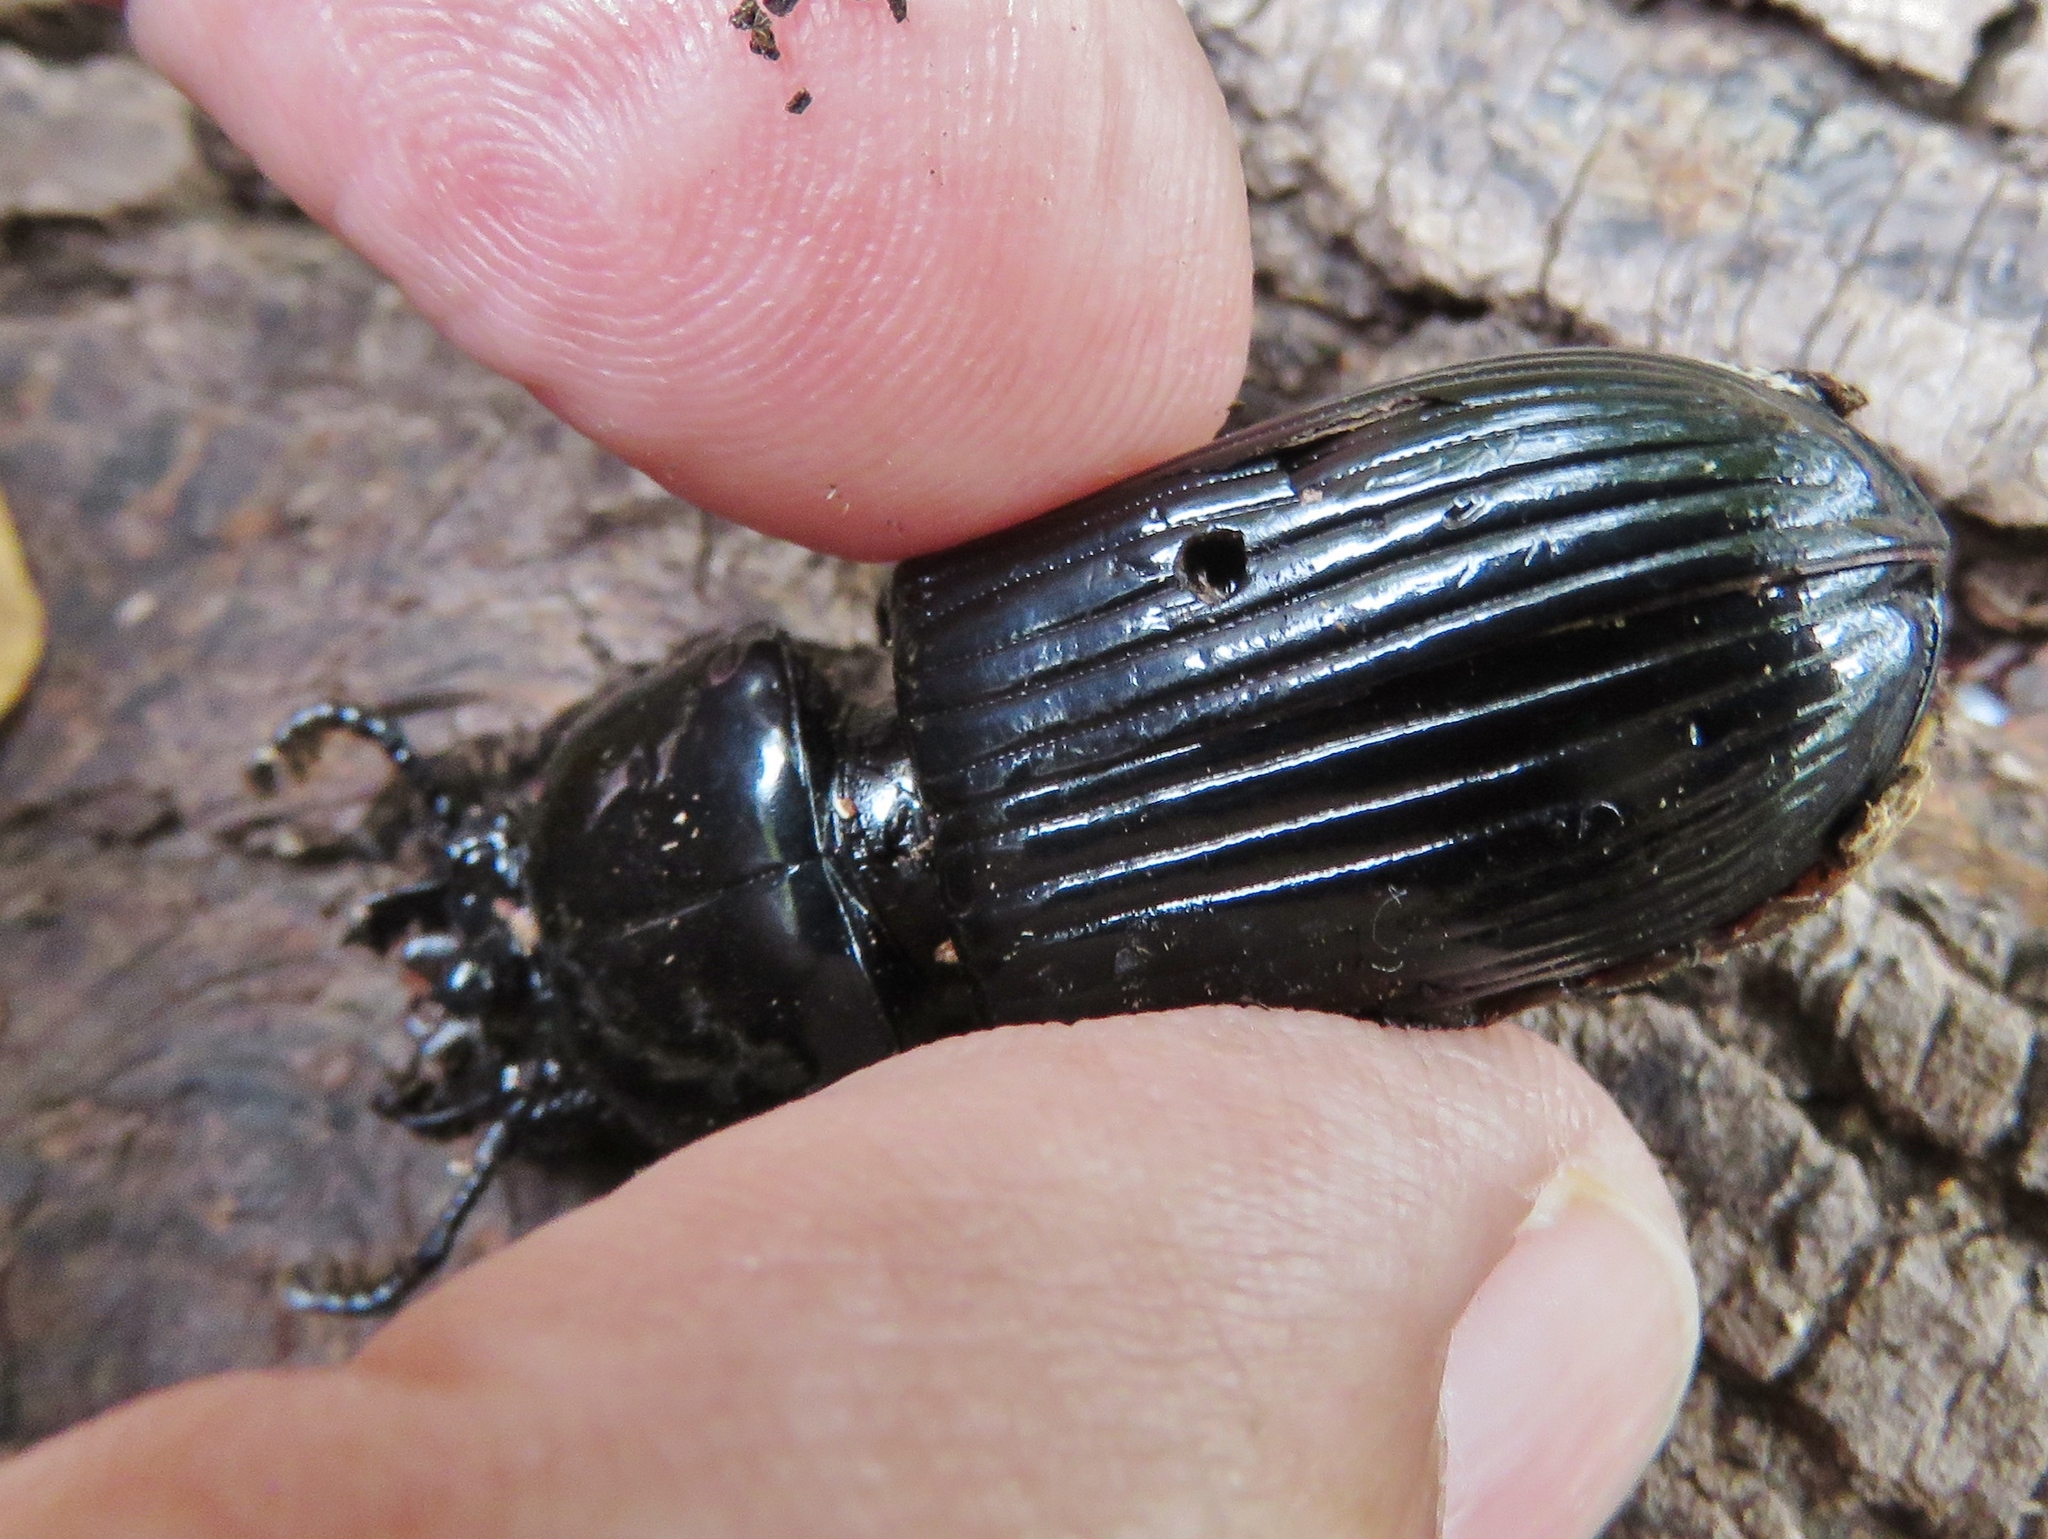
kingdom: Animalia
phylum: Arthropoda
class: Insecta
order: Coleoptera
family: Passalidae
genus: Odontotaenius
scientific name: Odontotaenius disjunctus
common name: Patent leather beetle
